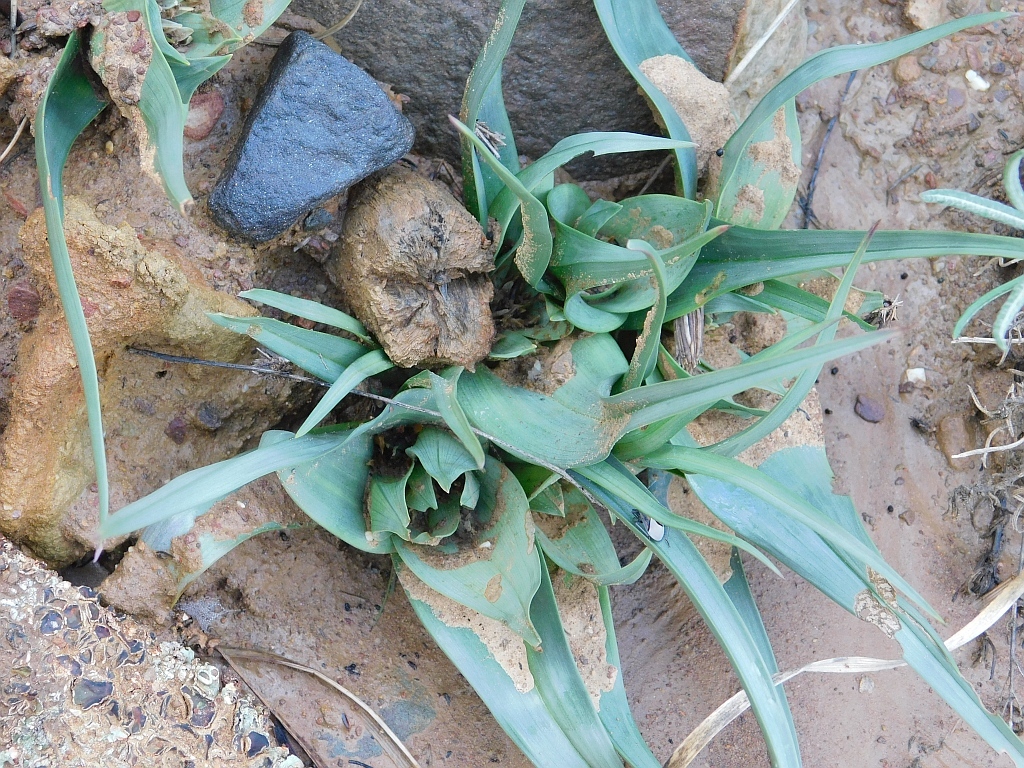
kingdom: Plantae
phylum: Tracheophyta
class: Liliopsida
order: Liliales
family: Colchicaceae
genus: Colchicum
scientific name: Colchicum eucomoides
